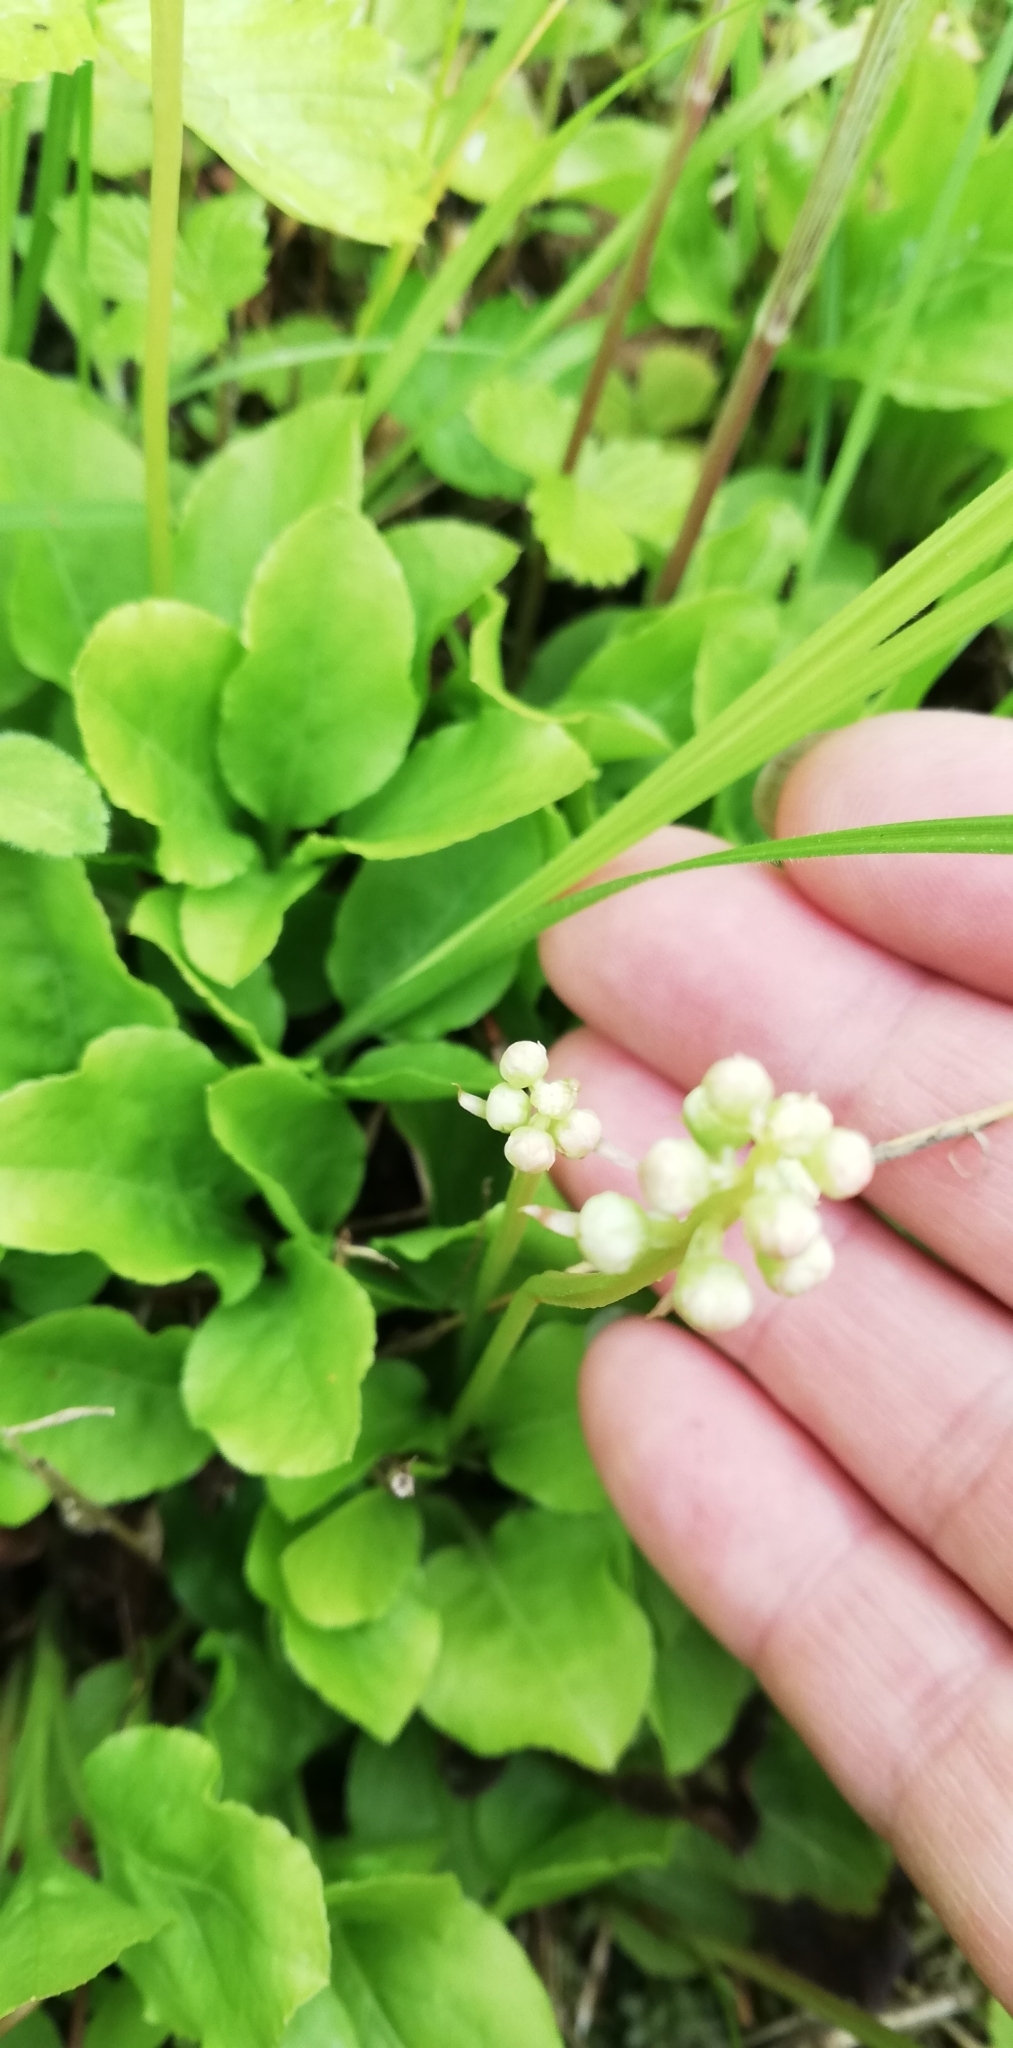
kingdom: Plantae
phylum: Tracheophyta
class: Magnoliopsida
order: Ericales
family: Ericaceae
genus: Pyrola
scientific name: Pyrola minor
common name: Common wintergreen
